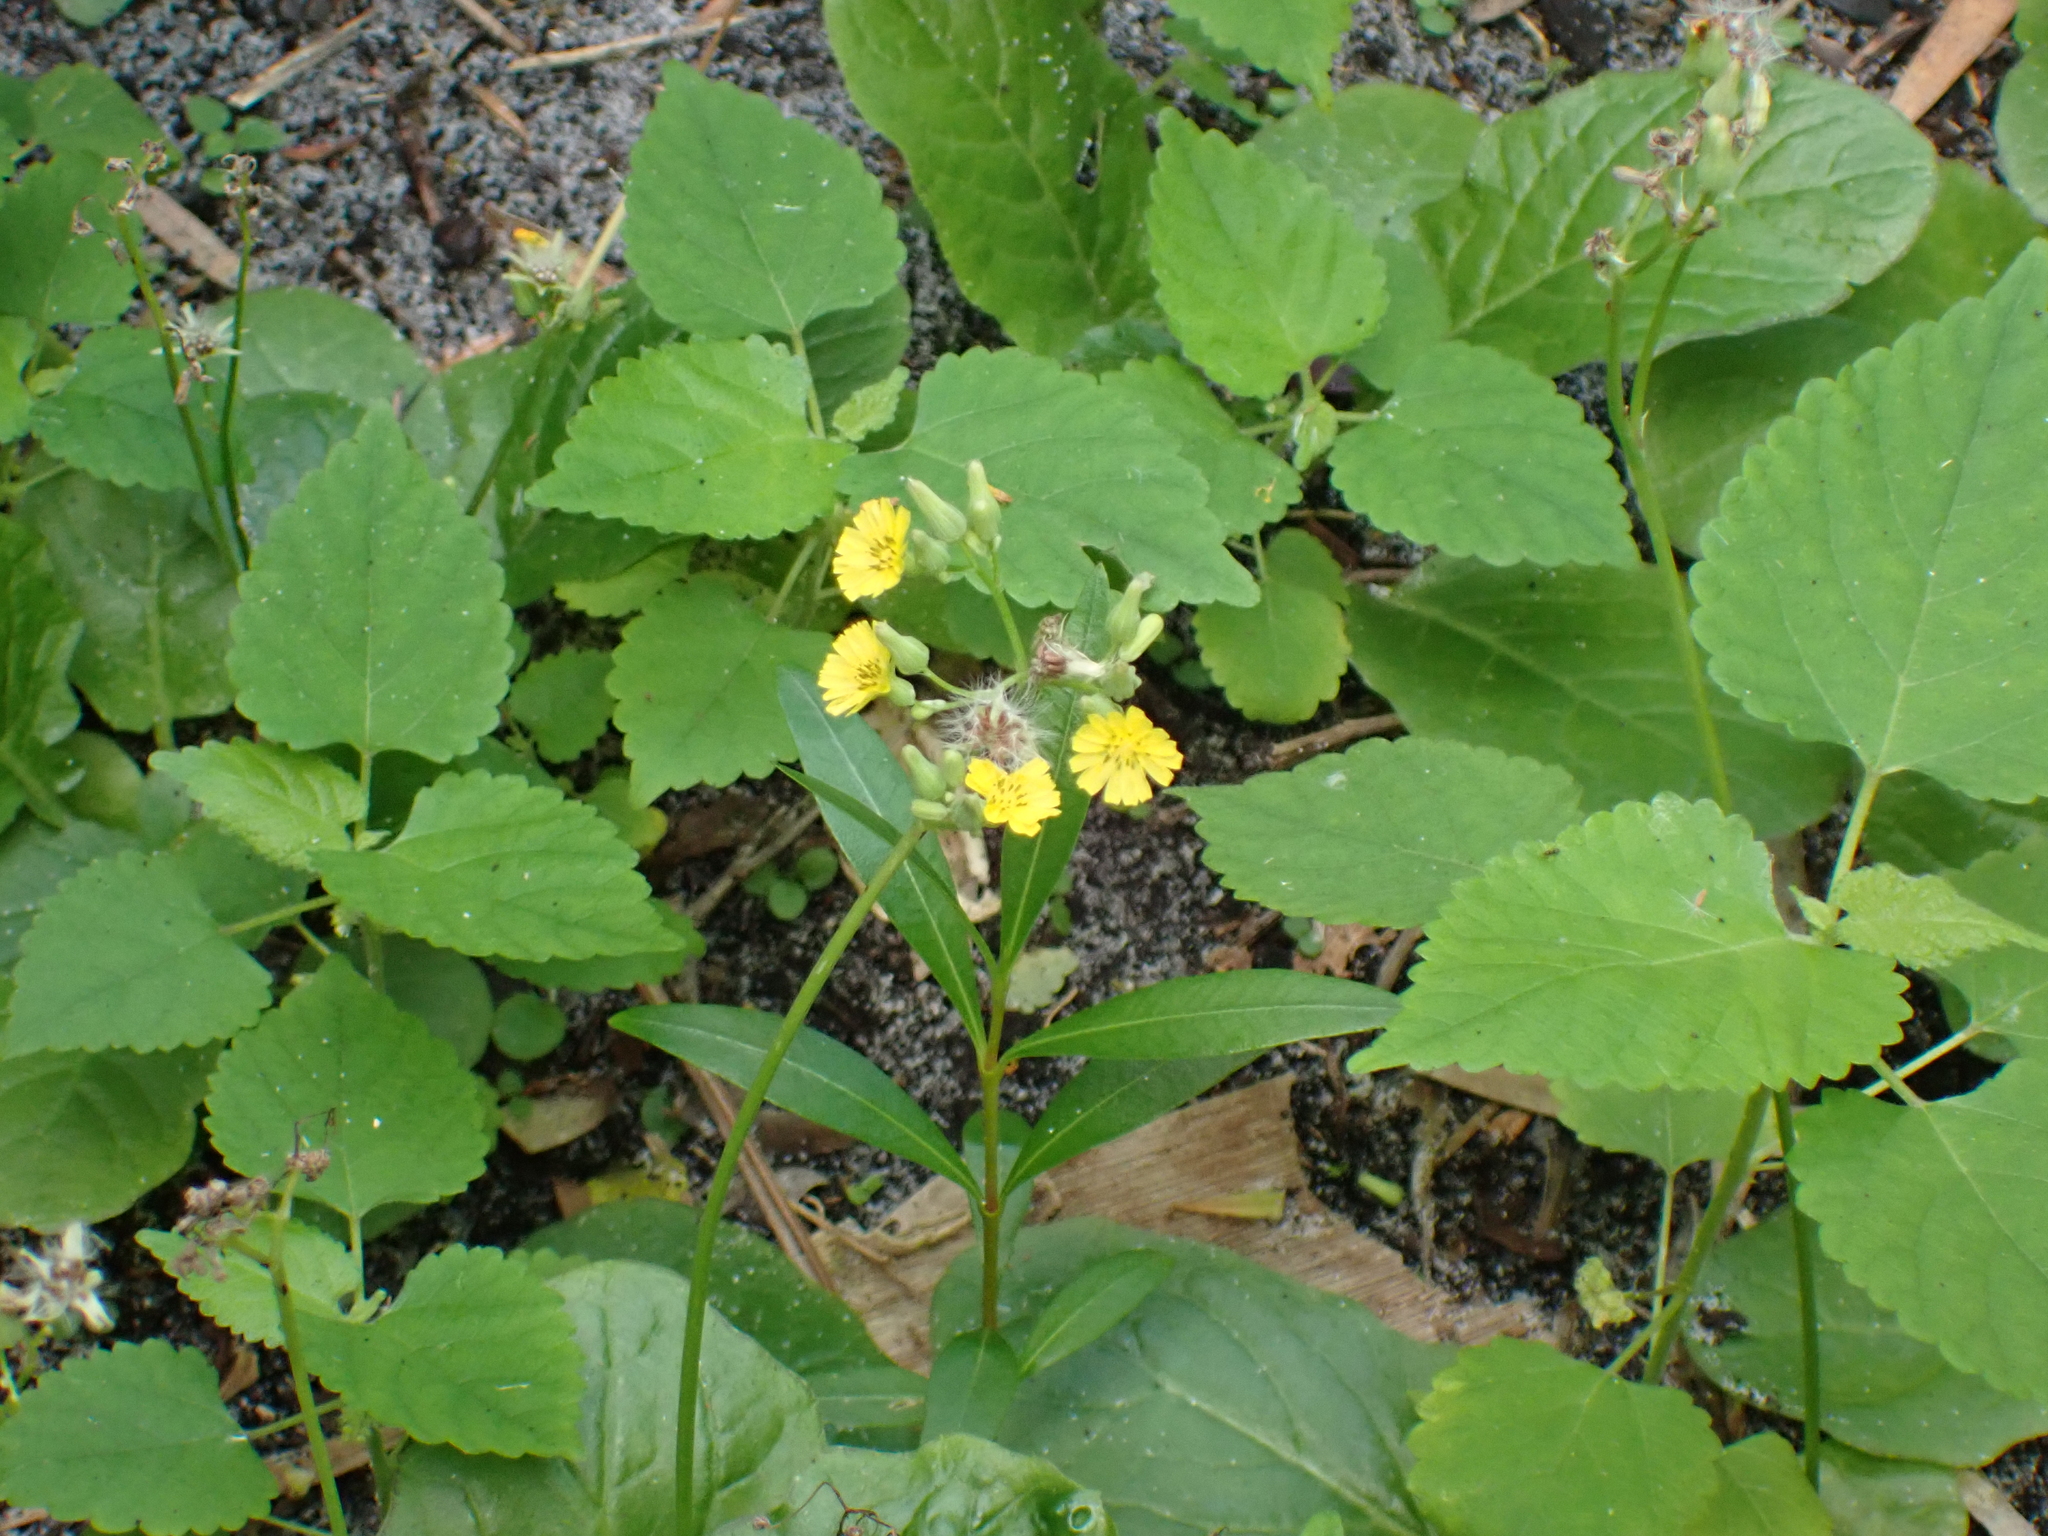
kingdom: Plantae
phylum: Tracheophyta
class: Magnoliopsida
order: Asterales
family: Asteraceae
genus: Youngia
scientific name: Youngia japonica
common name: Oriental false hawksbeard
